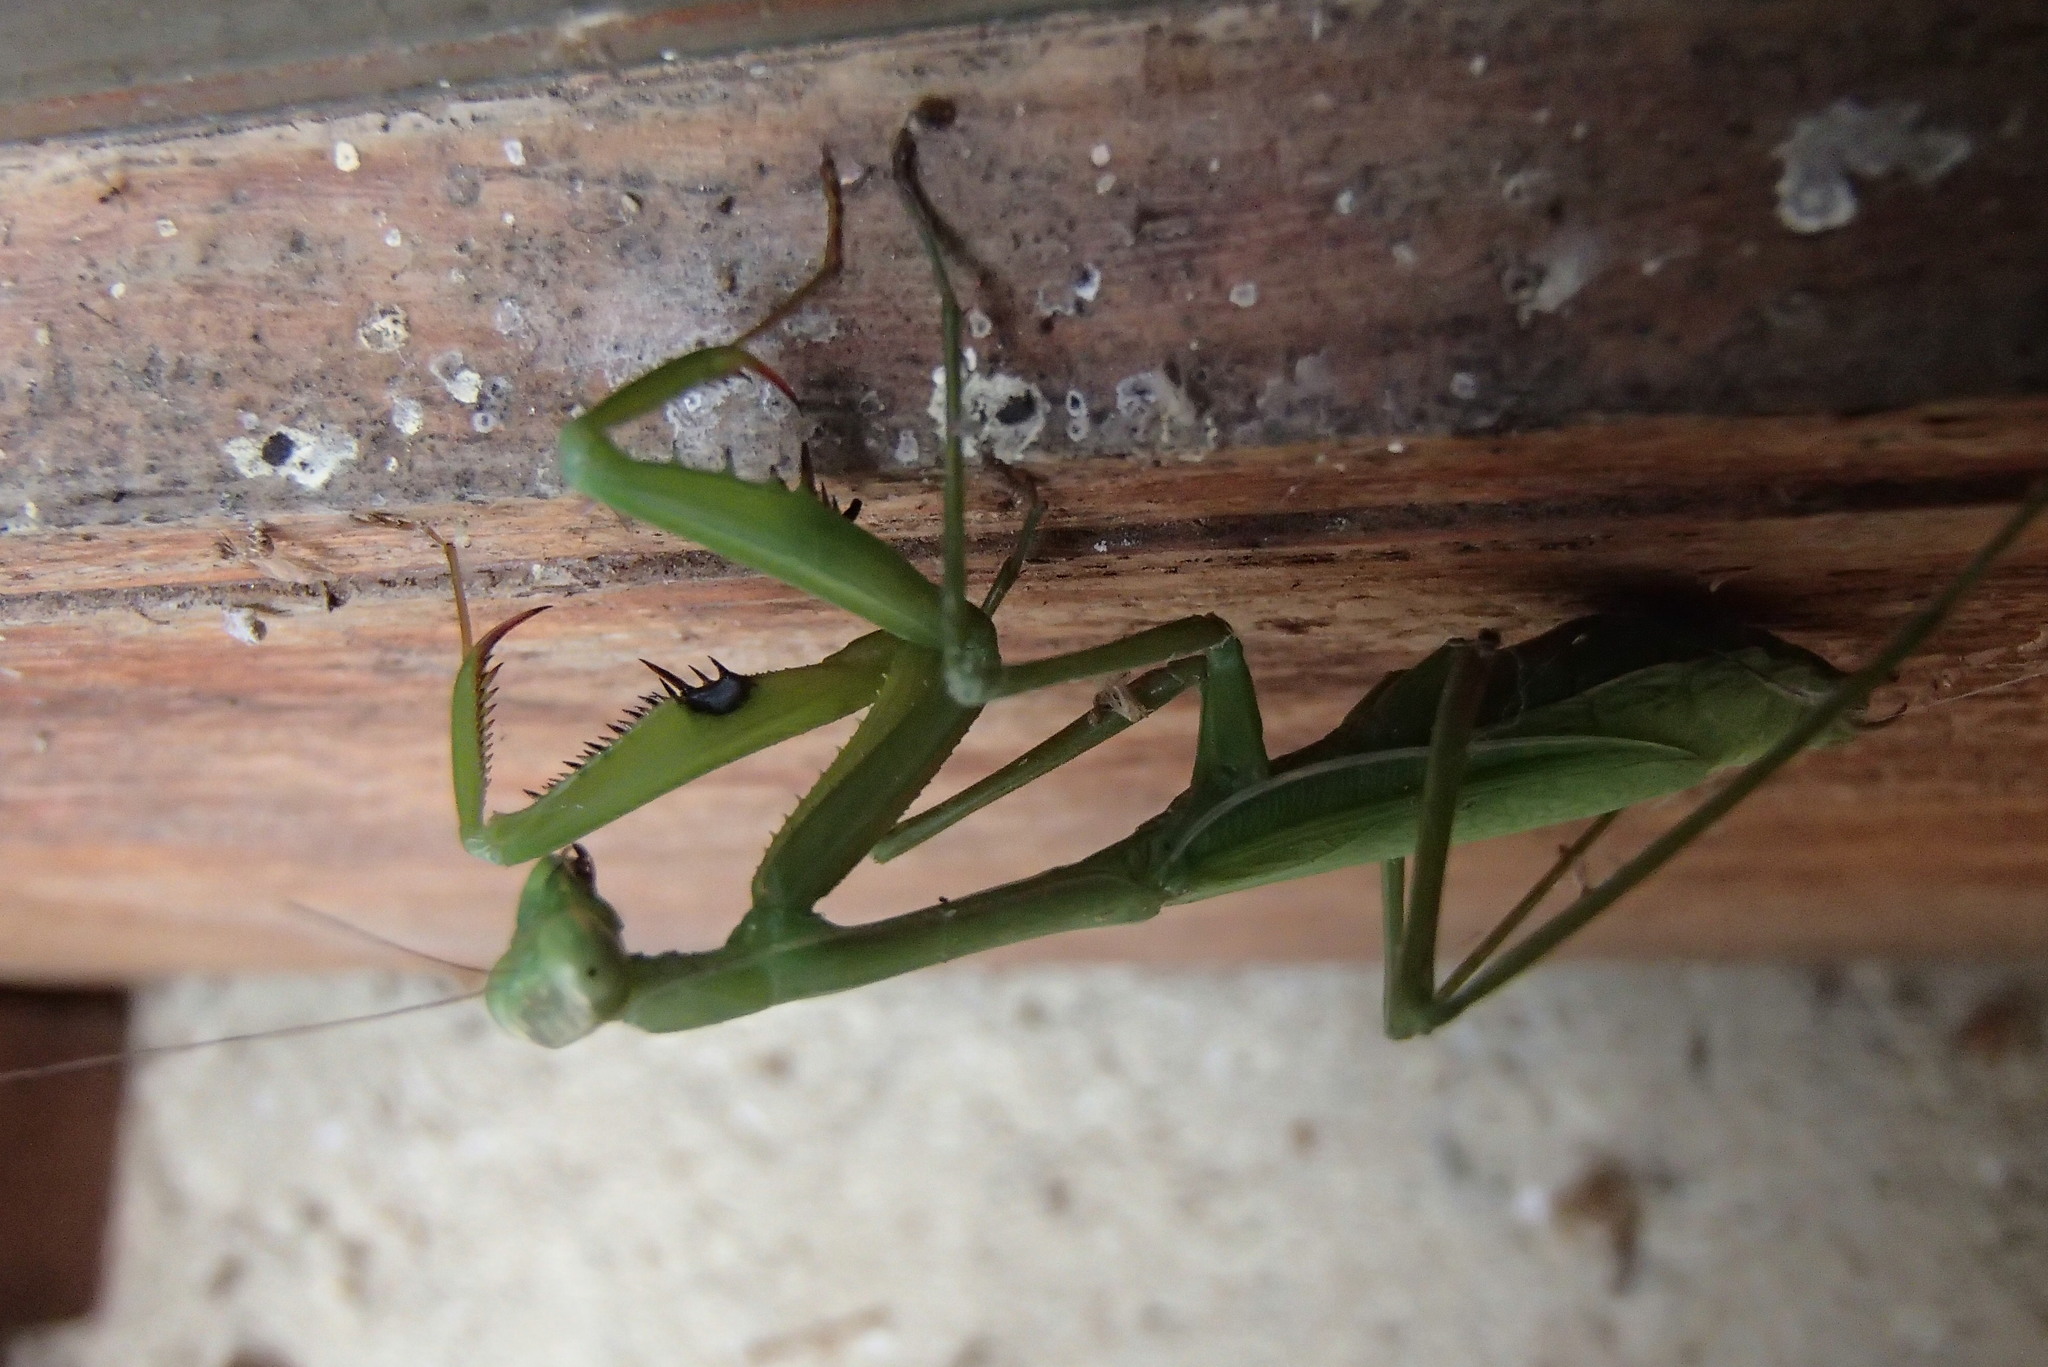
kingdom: Animalia
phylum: Arthropoda
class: Insecta
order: Mantodea
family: Mantidae
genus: Pseudomantis
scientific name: Pseudomantis albofimbriata
